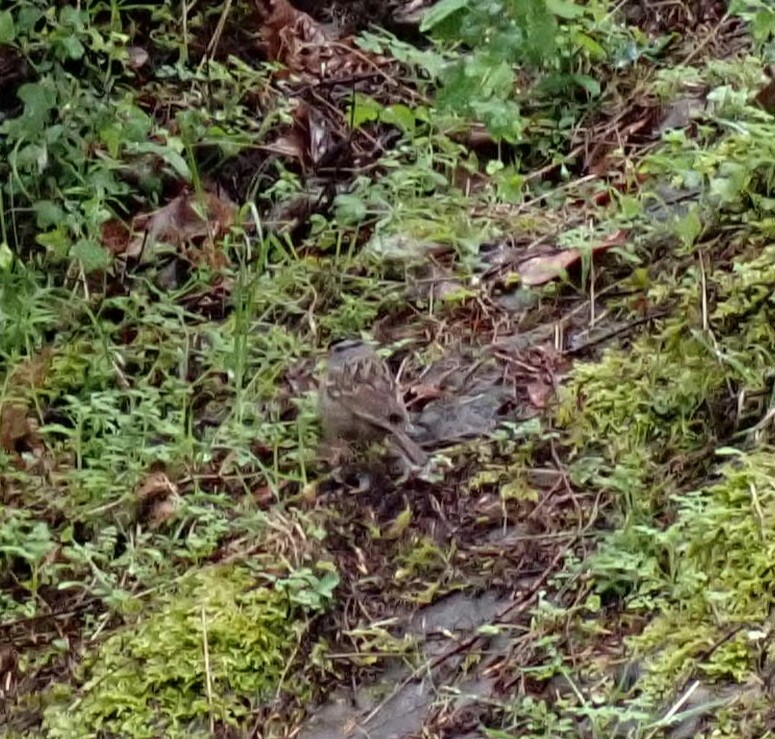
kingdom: Animalia
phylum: Chordata
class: Aves
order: Passeriformes
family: Passerellidae
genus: Zonotrichia
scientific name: Zonotrichia leucophrys
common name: White-crowned sparrow
